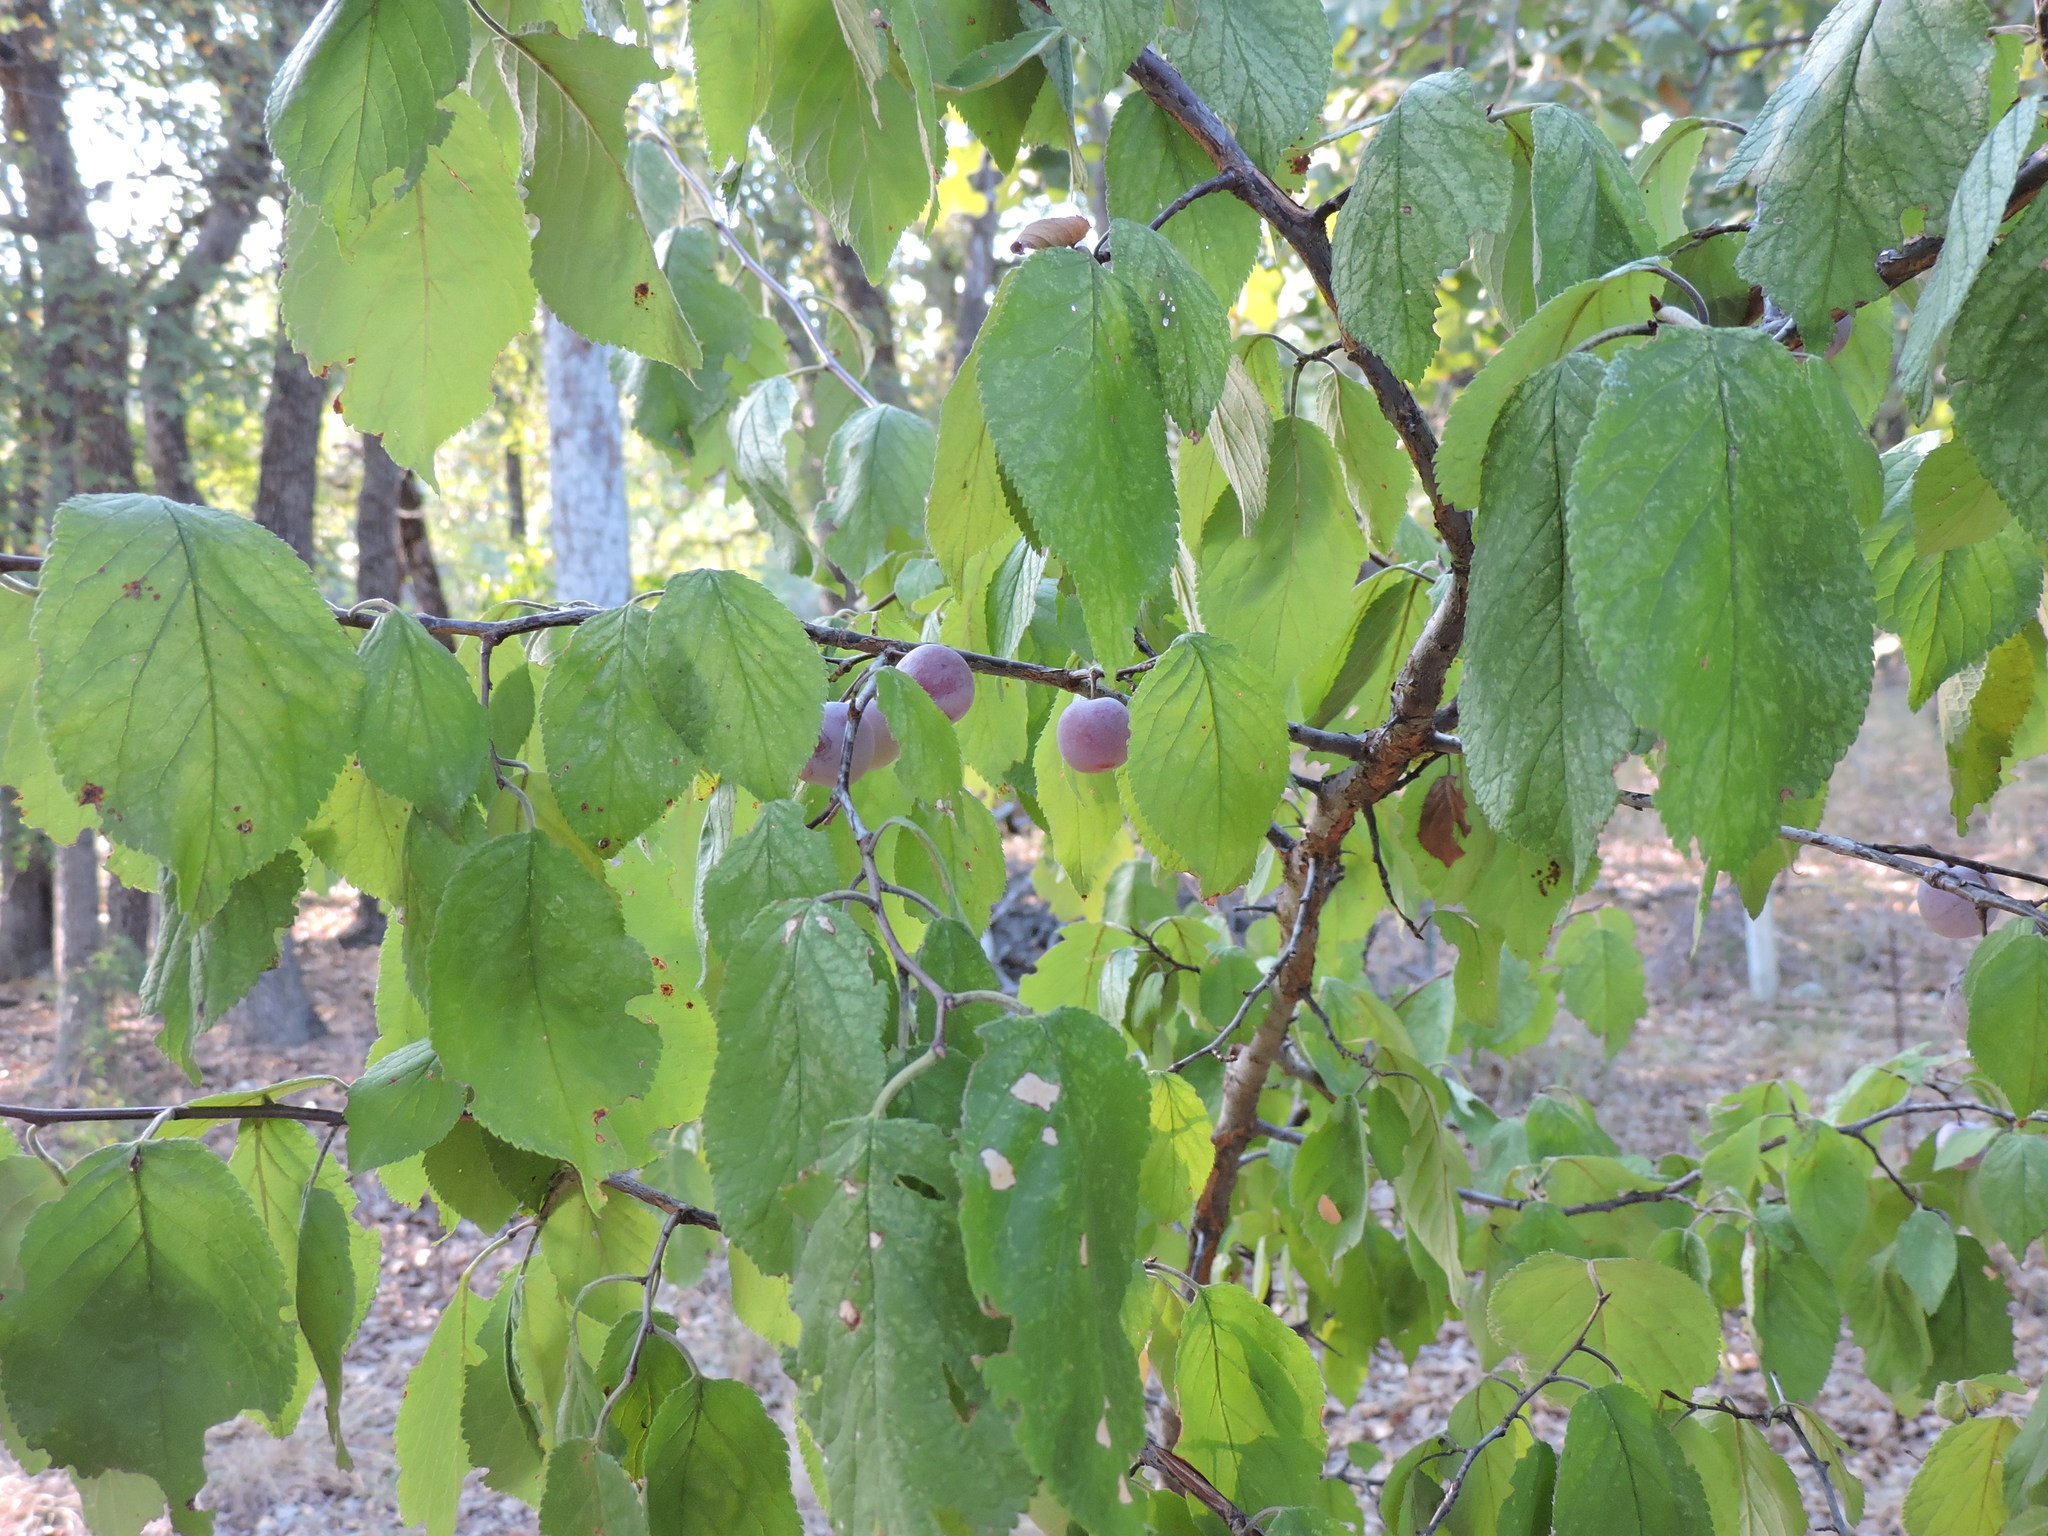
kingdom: Plantae
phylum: Tracheophyta
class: Magnoliopsida
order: Rosales
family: Rosaceae
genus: Prunus
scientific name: Prunus mexicana
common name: Mexican plum
